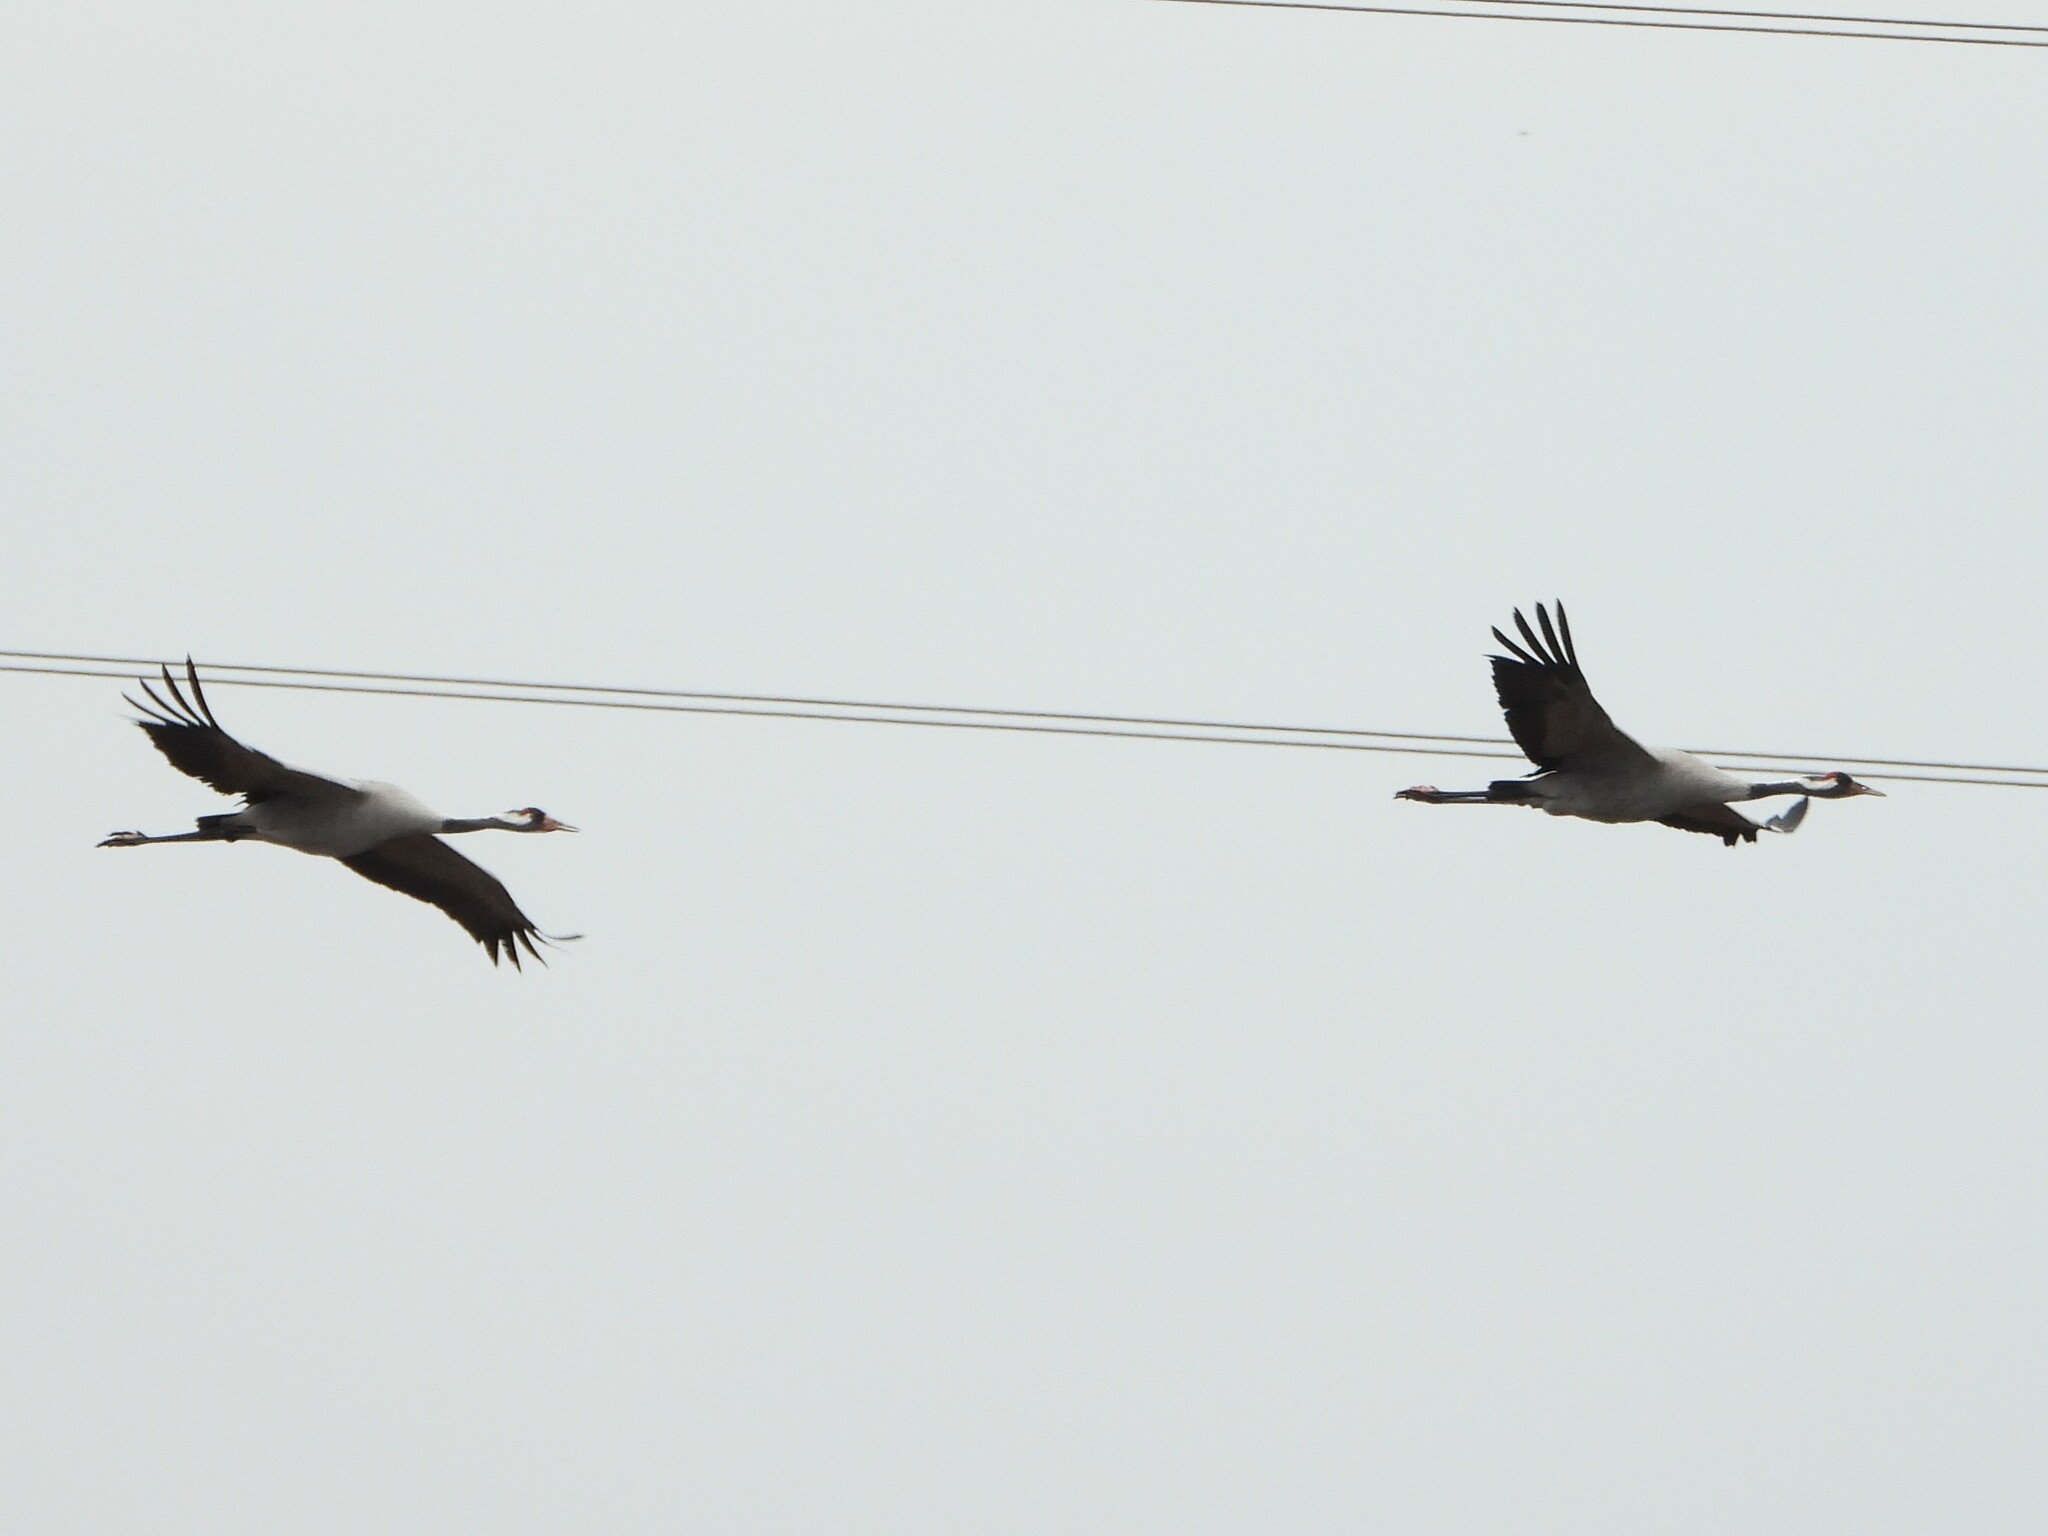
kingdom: Animalia
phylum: Chordata
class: Aves
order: Gruiformes
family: Gruidae
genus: Grus
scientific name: Grus grus
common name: Common crane
